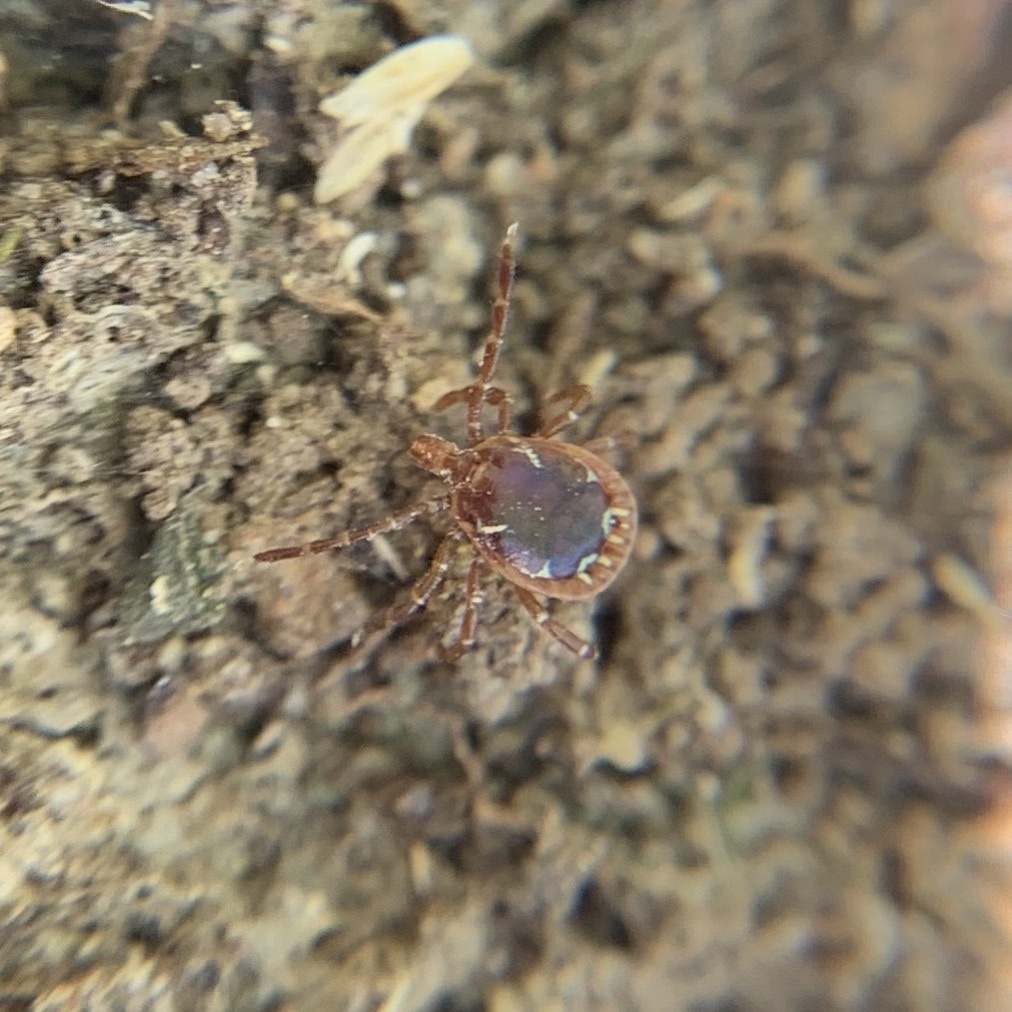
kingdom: Animalia
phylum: Arthropoda
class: Arachnida
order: Ixodida
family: Ixodidae
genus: Amblyomma
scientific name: Amblyomma americanum
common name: Lone star tick
